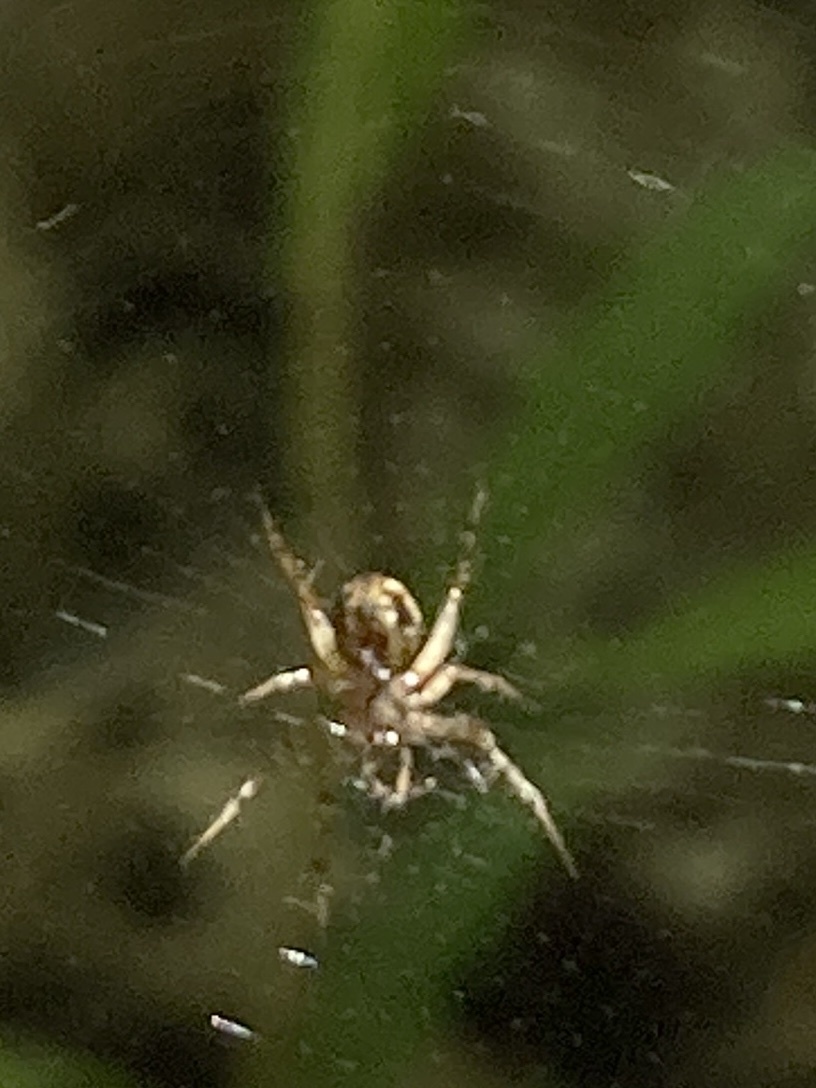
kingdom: Animalia
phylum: Arthropoda
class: Arachnida
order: Araneae
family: Araneidae
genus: Mangora
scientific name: Mangora placida
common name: Tuft-legged orbweaver
